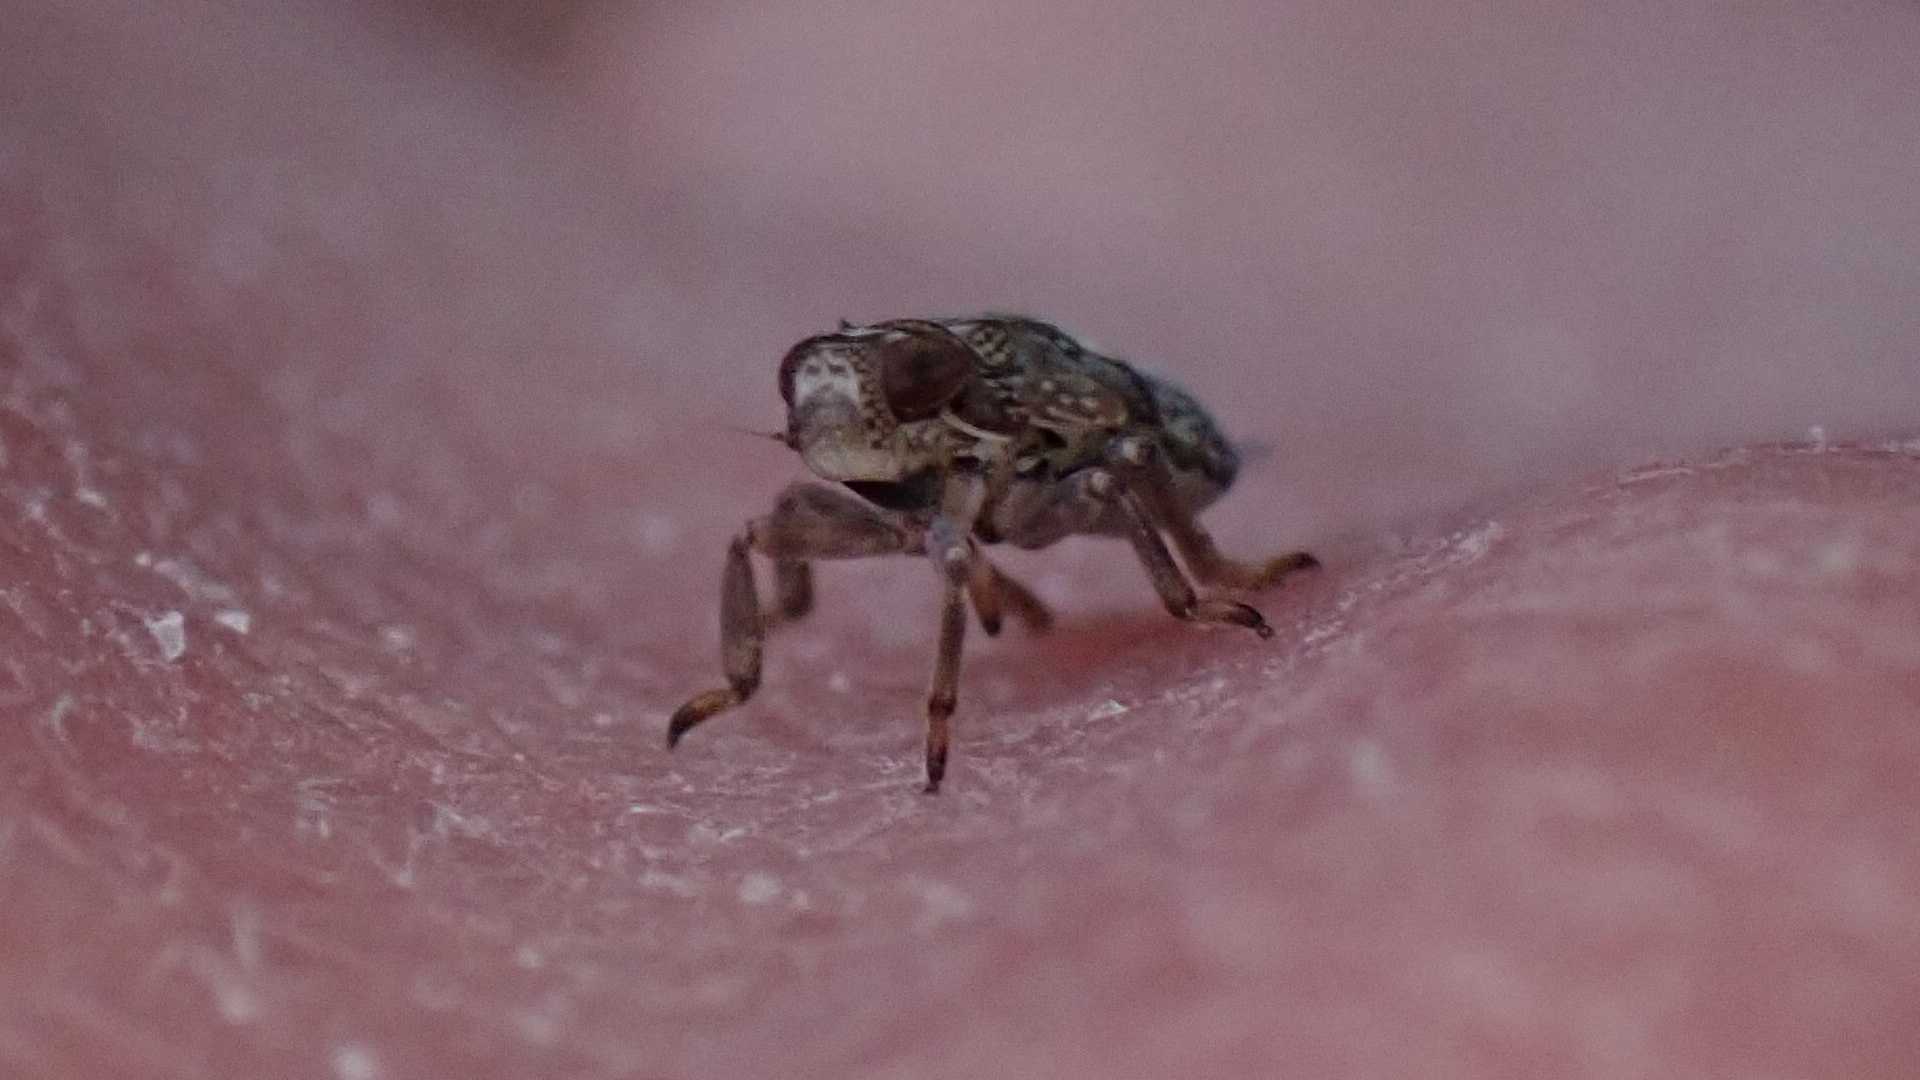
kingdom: Animalia
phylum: Arthropoda
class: Insecta
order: Hemiptera
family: Issidae
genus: Issus
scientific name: Issus coleoptratus
